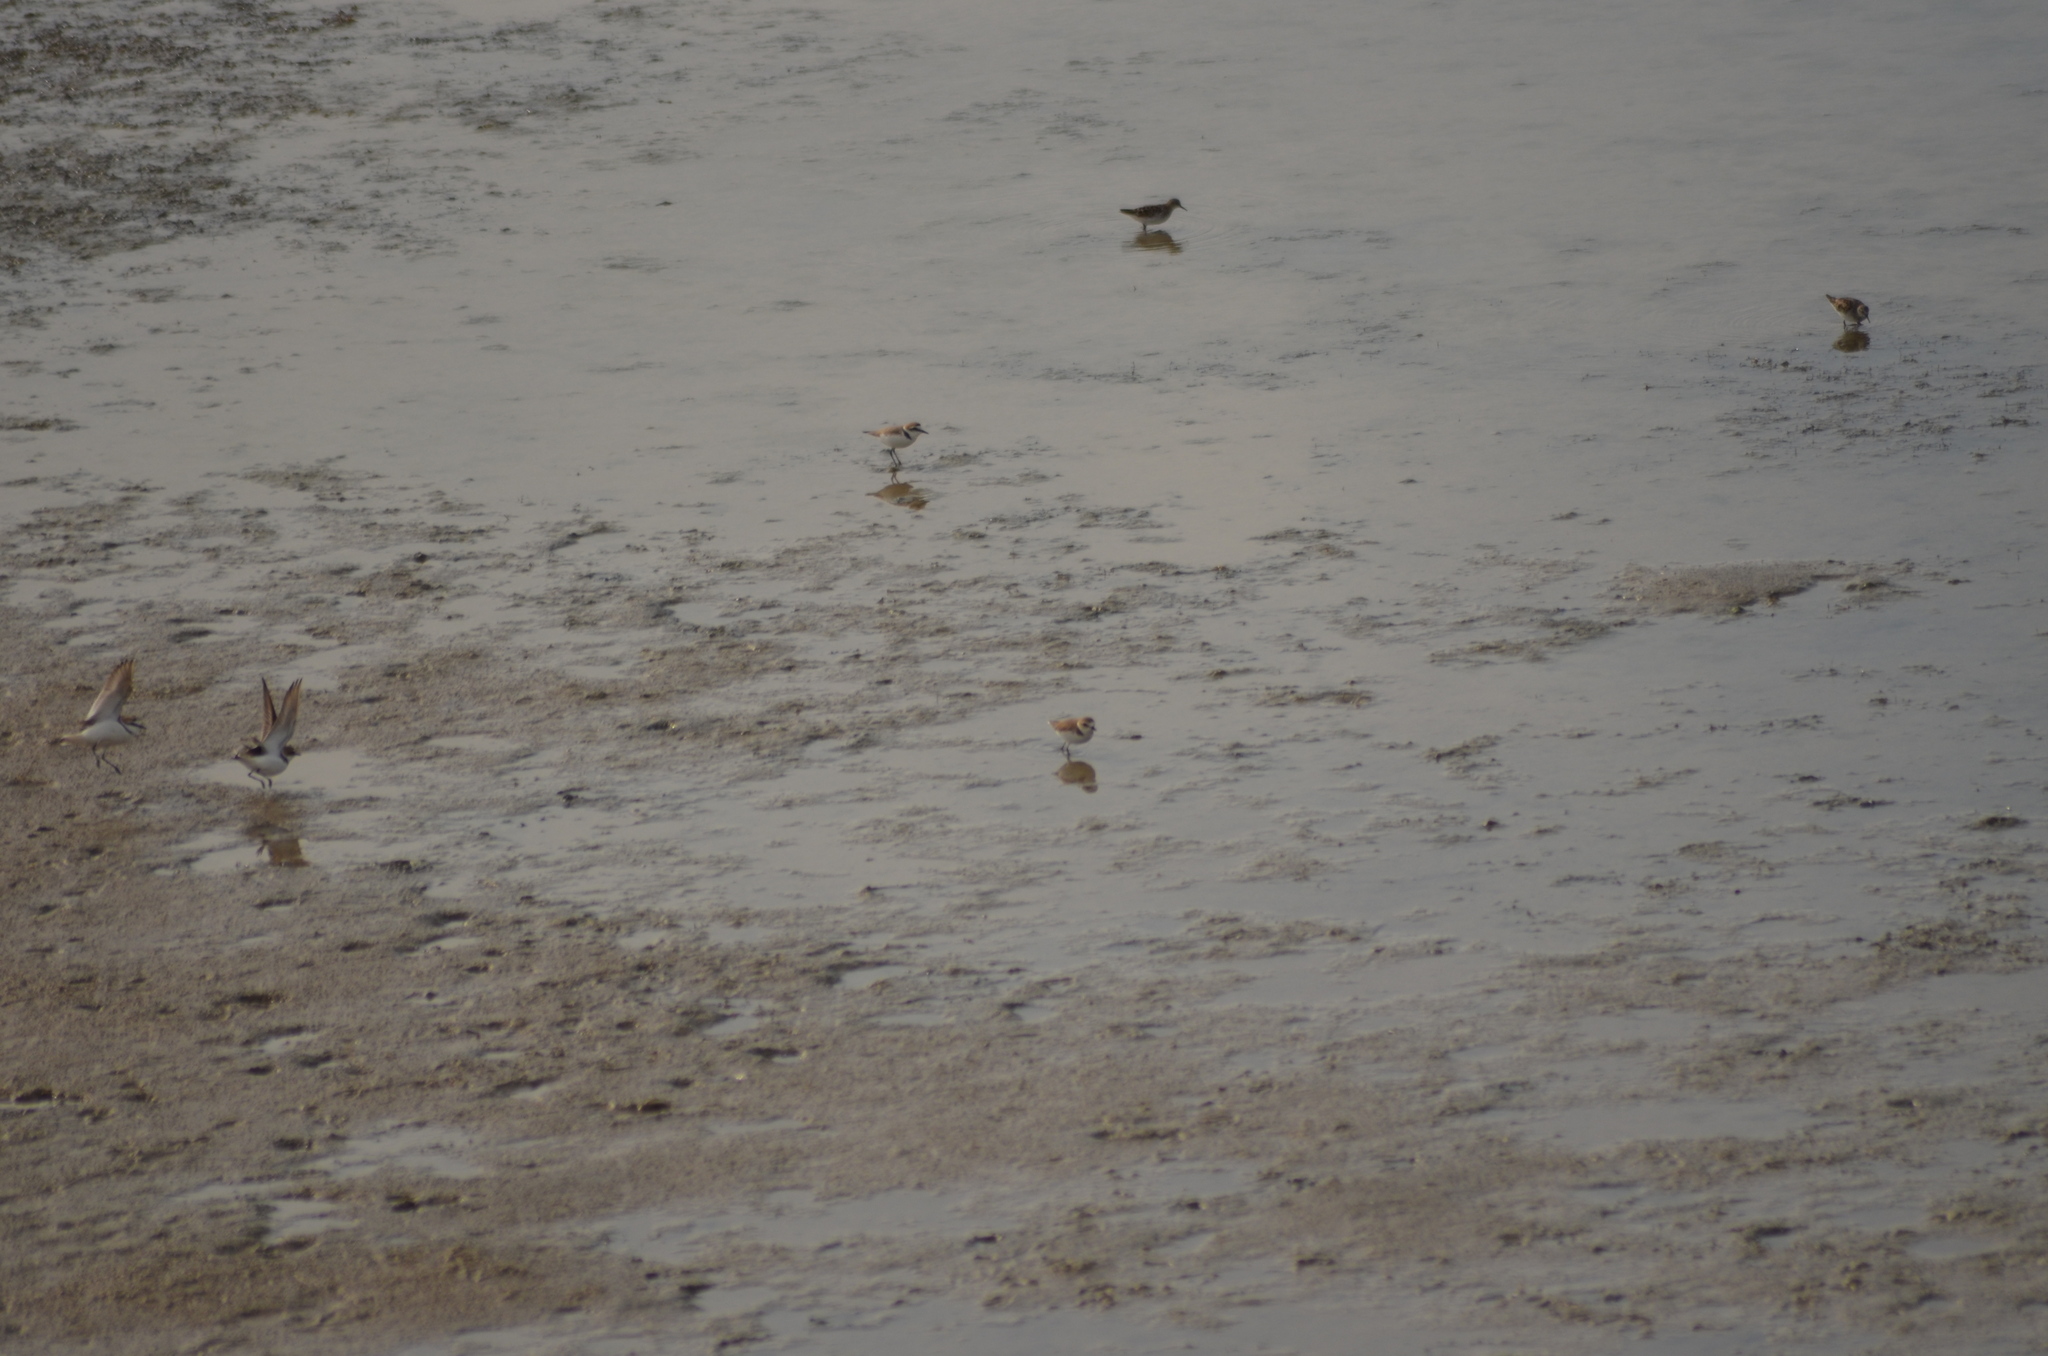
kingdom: Animalia
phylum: Chordata
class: Aves
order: Charadriiformes
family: Scolopacidae
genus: Calidris
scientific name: Calidris minuta
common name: Little stint
